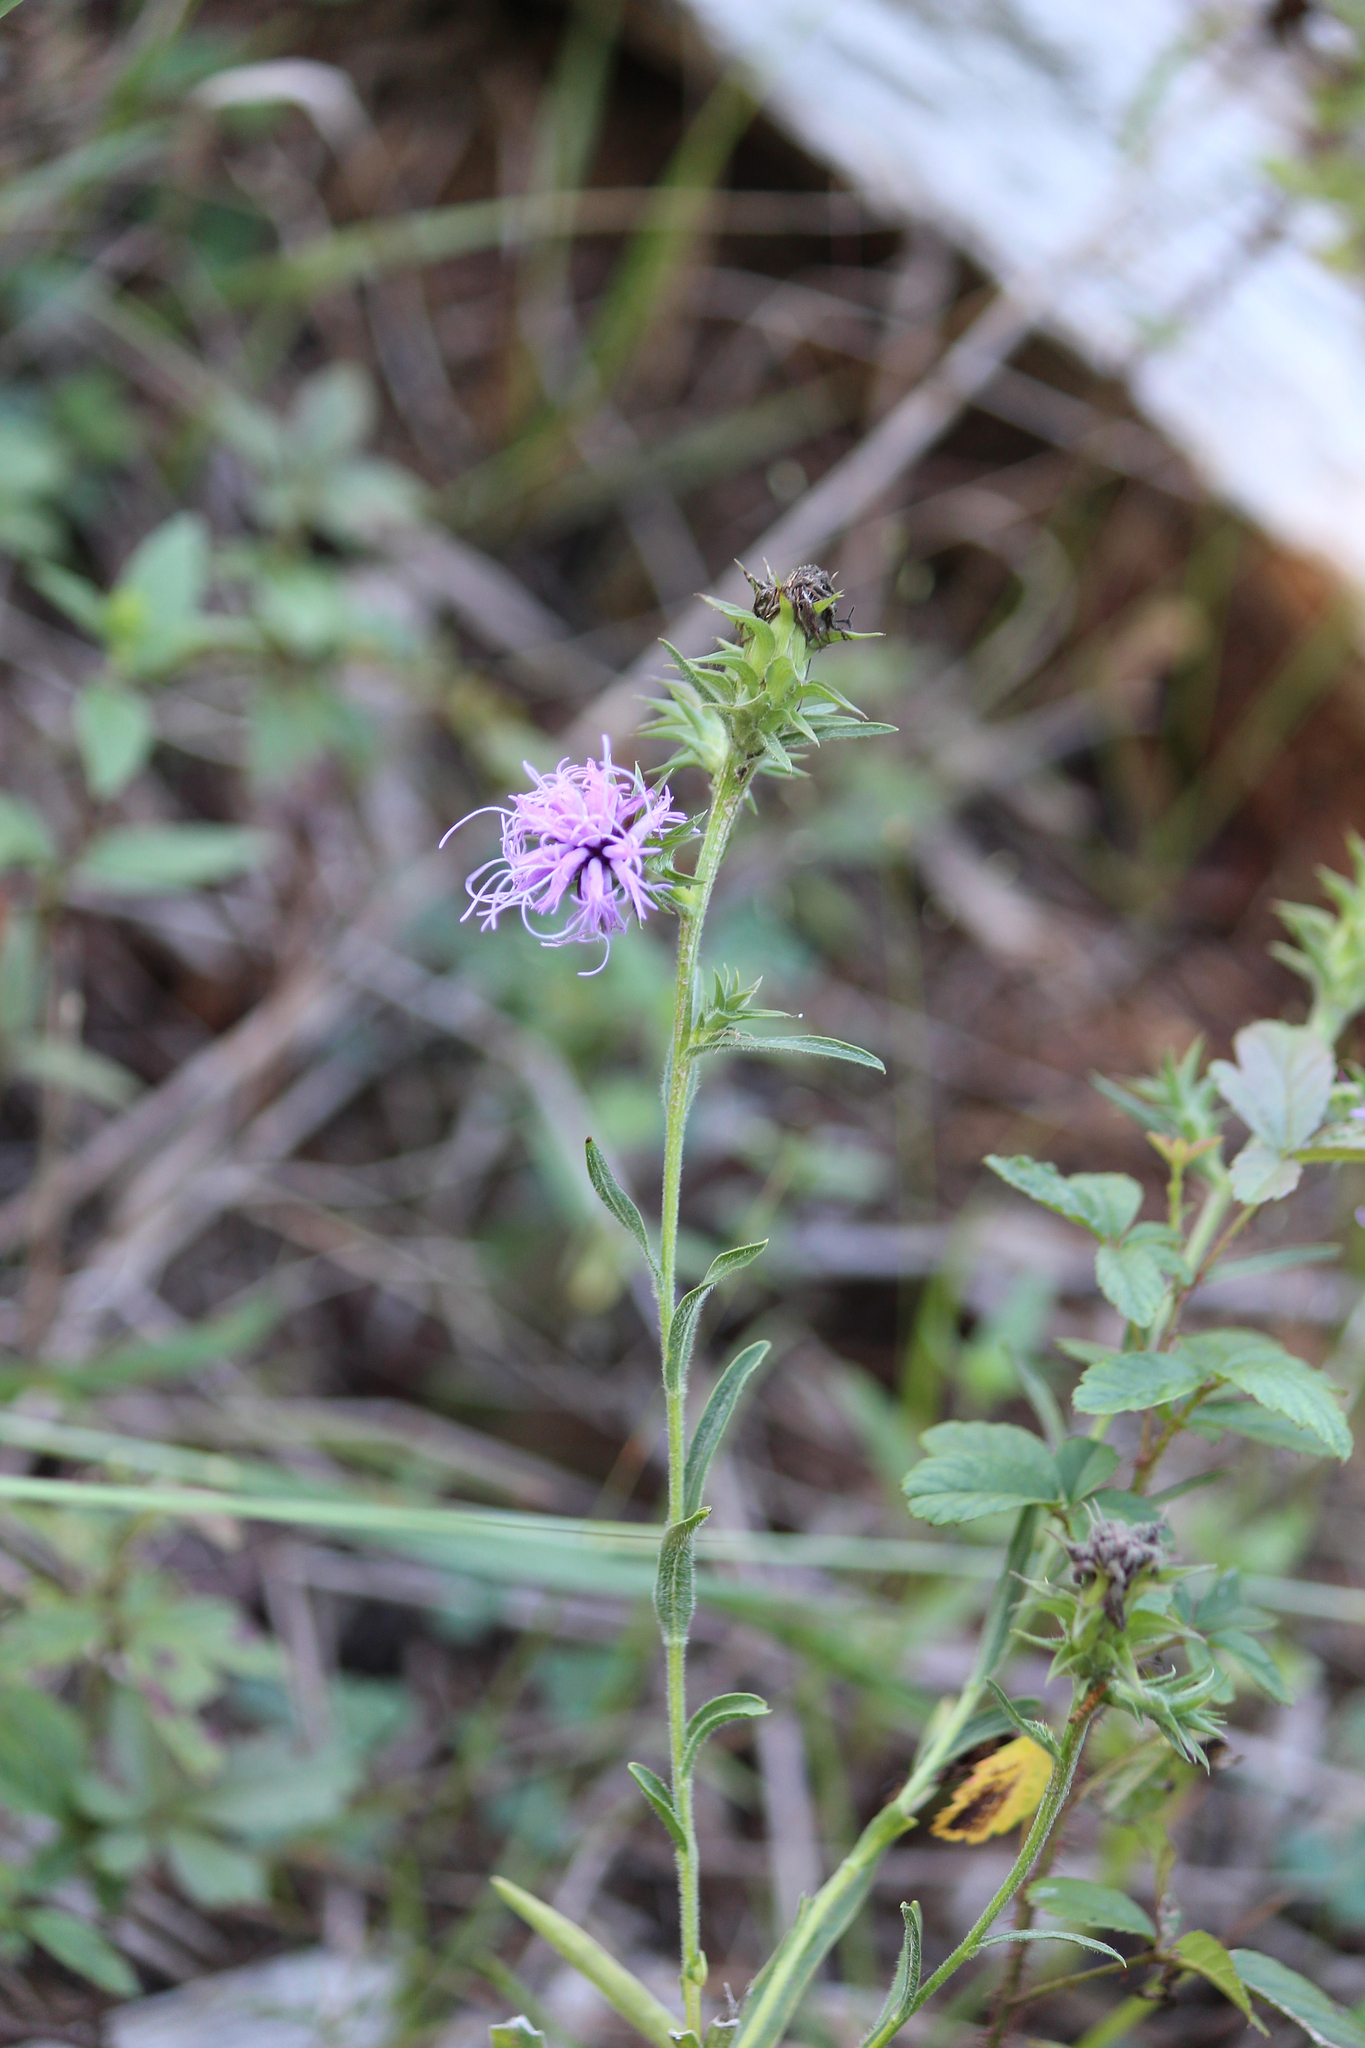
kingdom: Plantae
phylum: Tracheophyta
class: Magnoliopsida
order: Asterales
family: Asteraceae
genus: Liatris
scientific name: Liatris squarrosa
